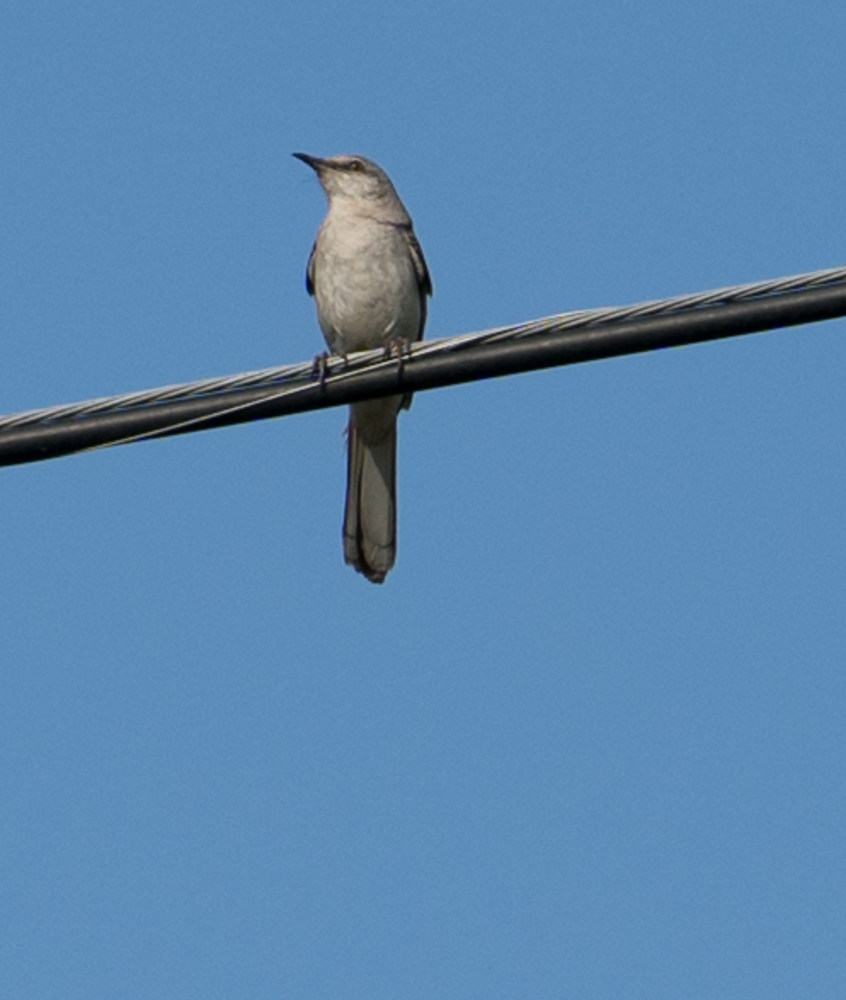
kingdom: Animalia
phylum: Chordata
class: Aves
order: Passeriformes
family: Mimidae
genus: Mimus
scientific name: Mimus polyglottos
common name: Northern mockingbird
